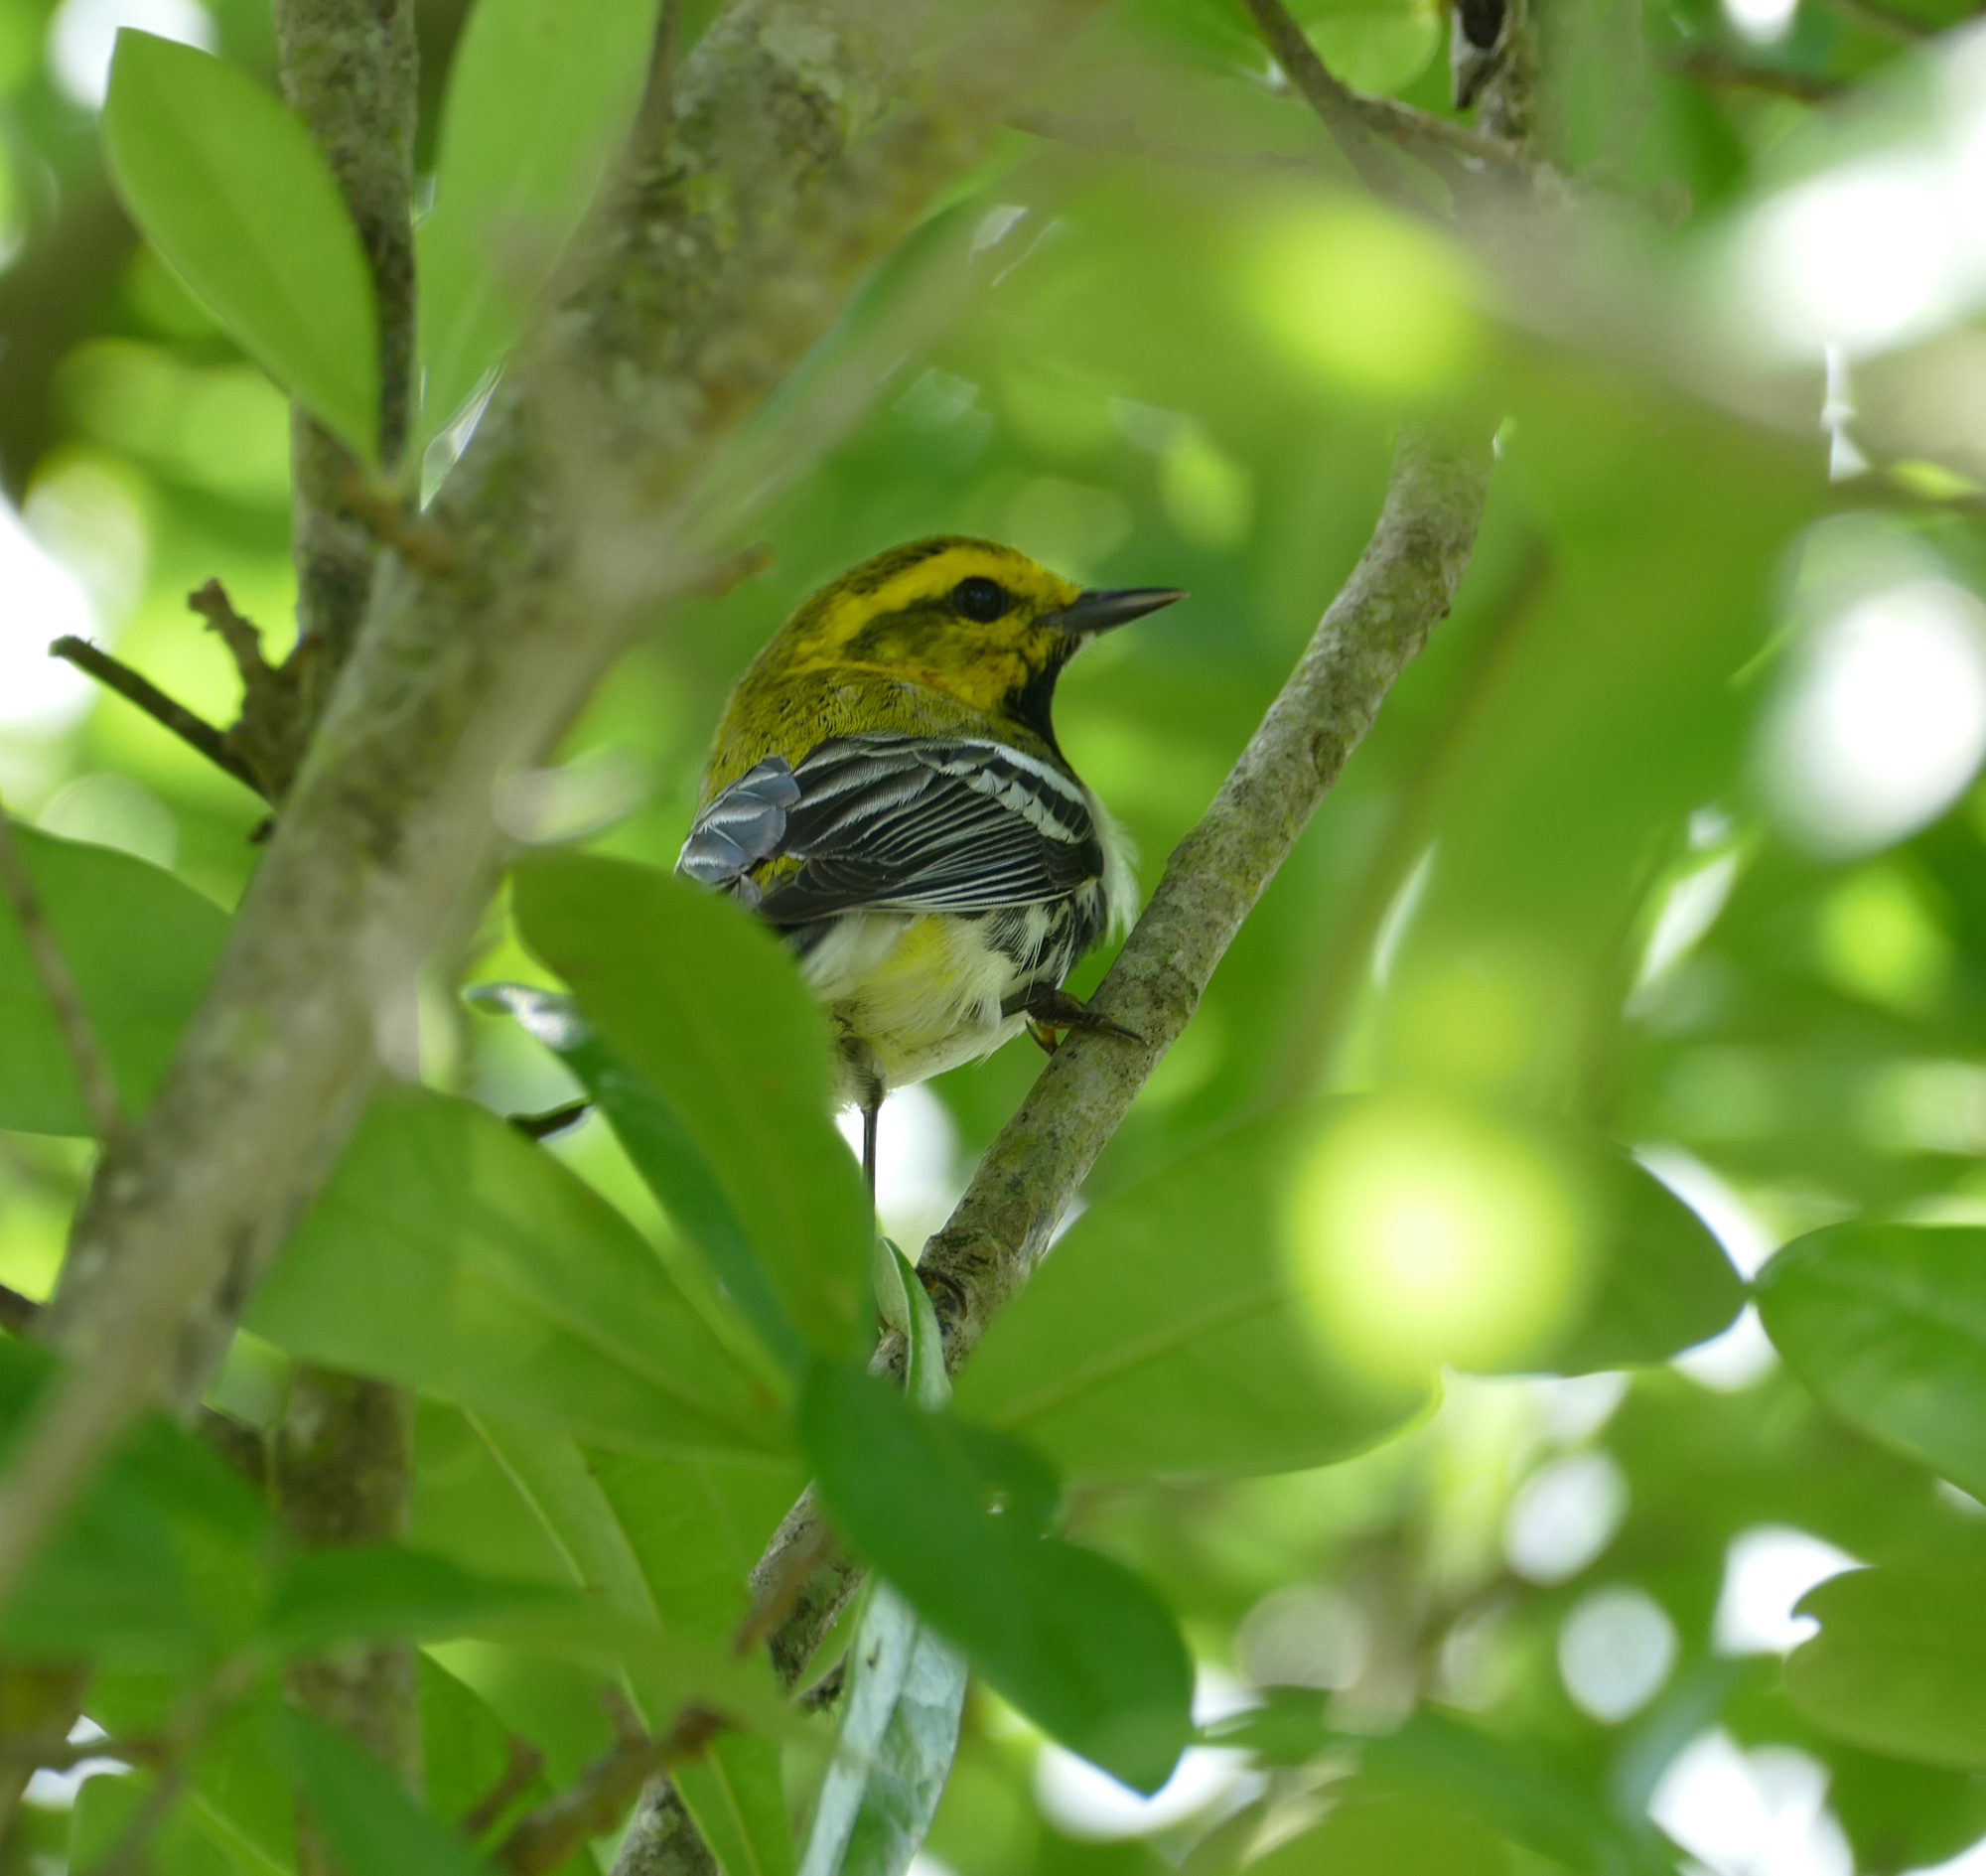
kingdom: Animalia
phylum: Chordata
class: Aves
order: Passeriformes
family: Parulidae
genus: Setophaga
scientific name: Setophaga virens
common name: Black-throated green warbler
